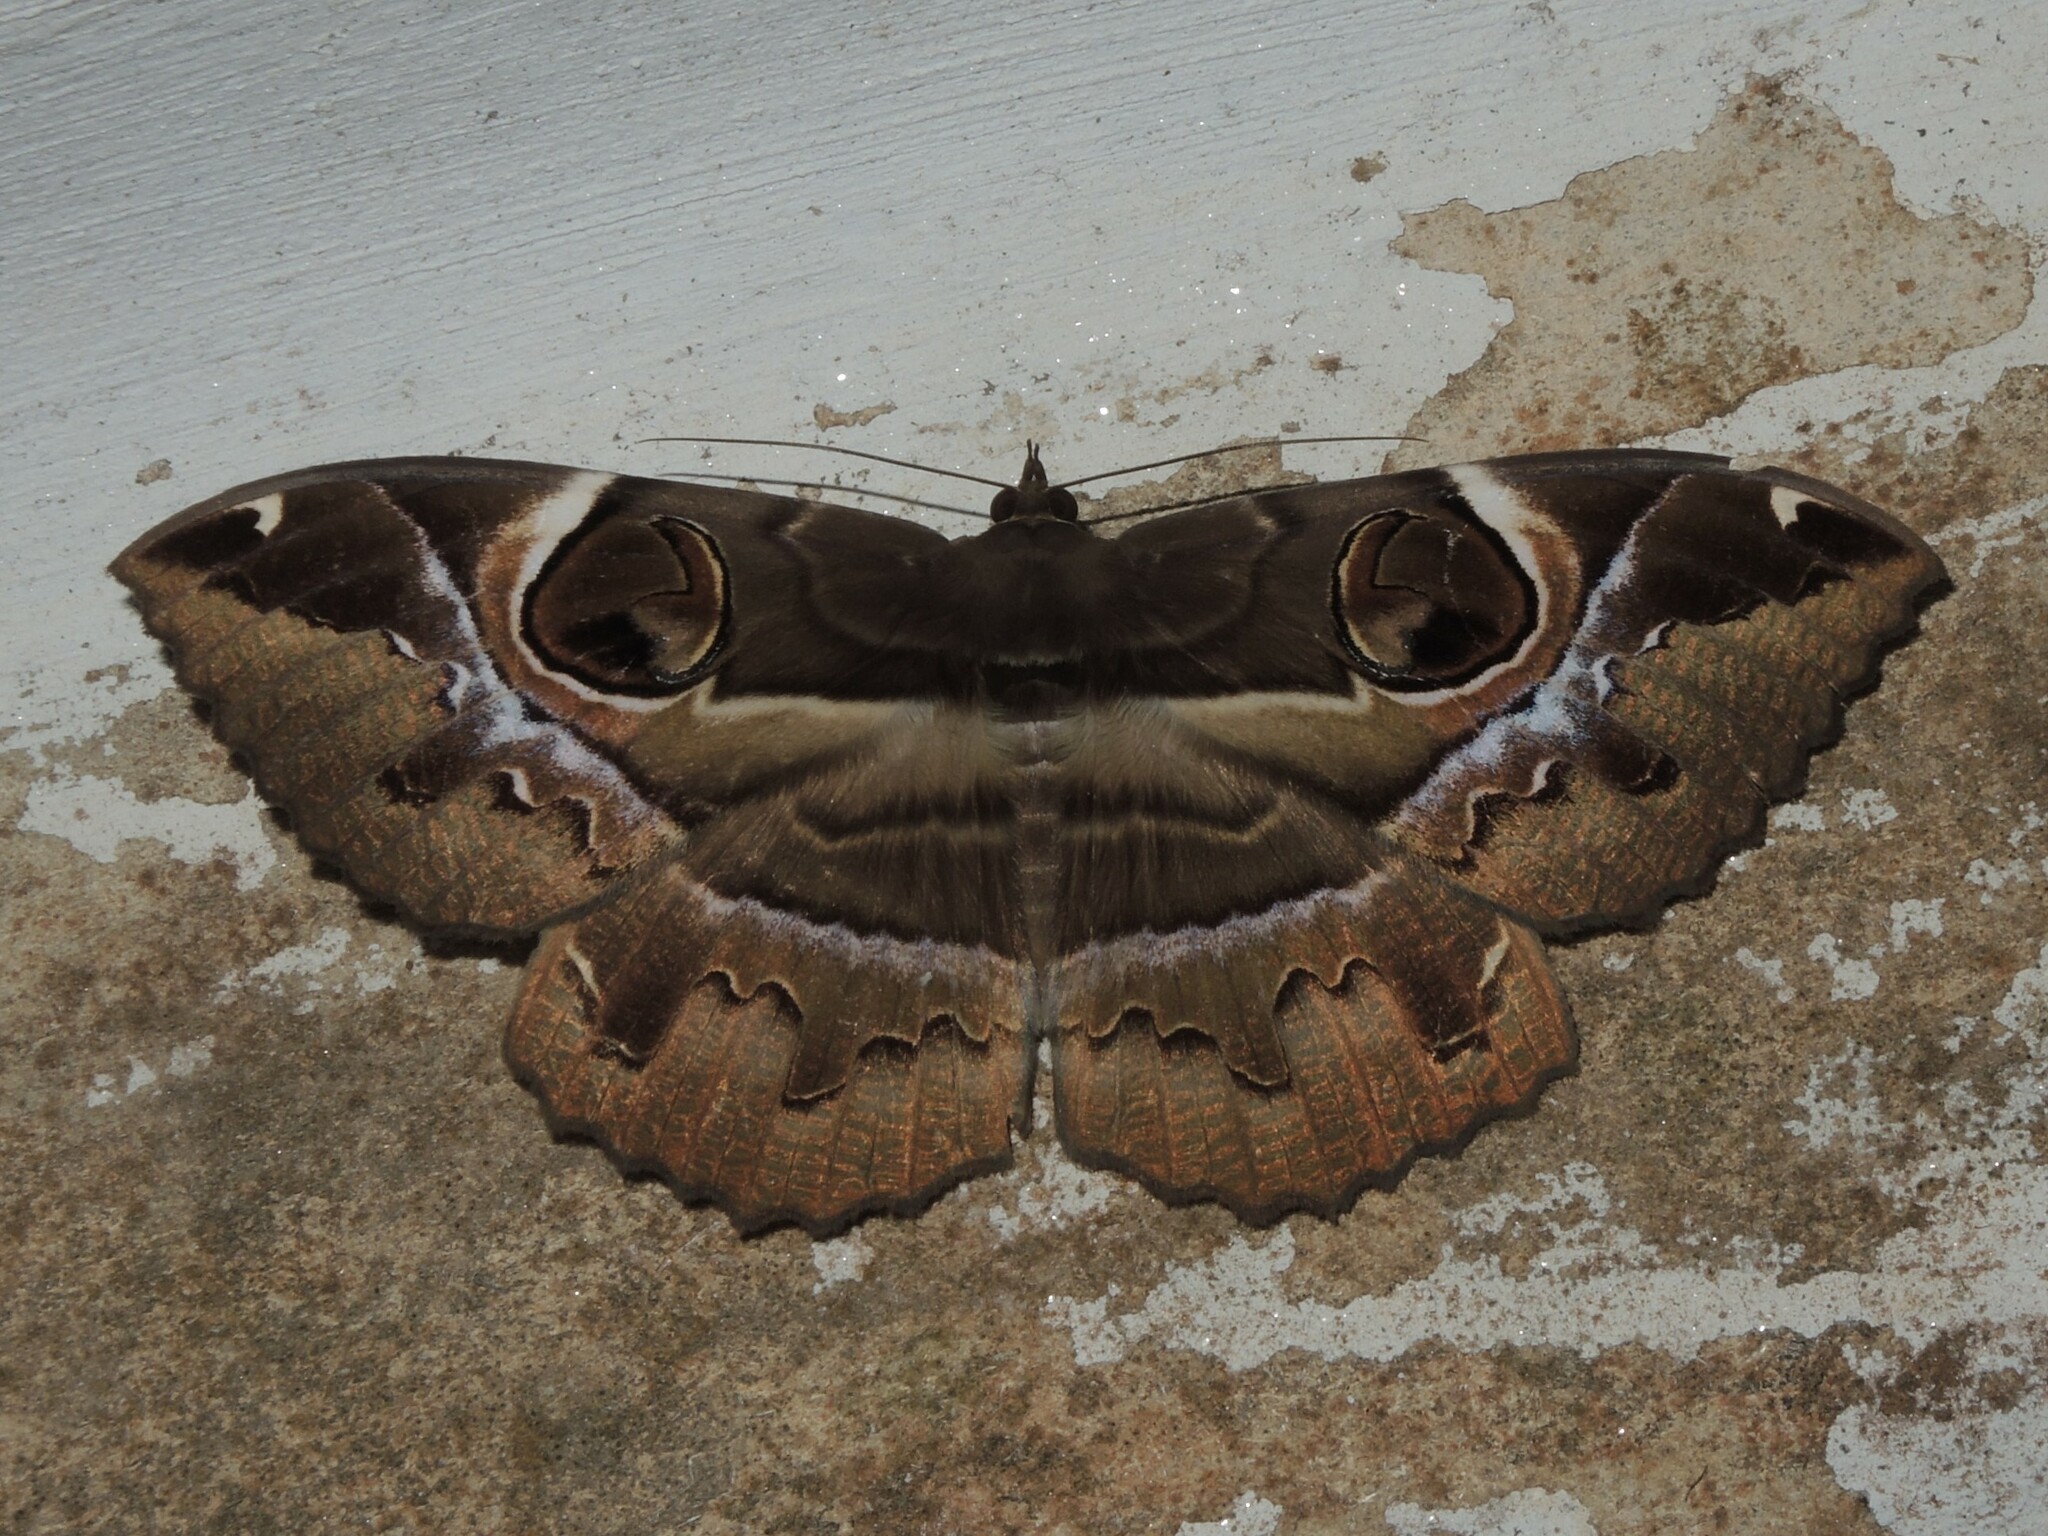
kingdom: Animalia
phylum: Arthropoda
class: Insecta
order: Lepidoptera
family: Erebidae
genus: Erebus
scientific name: Erebus ephesperis
